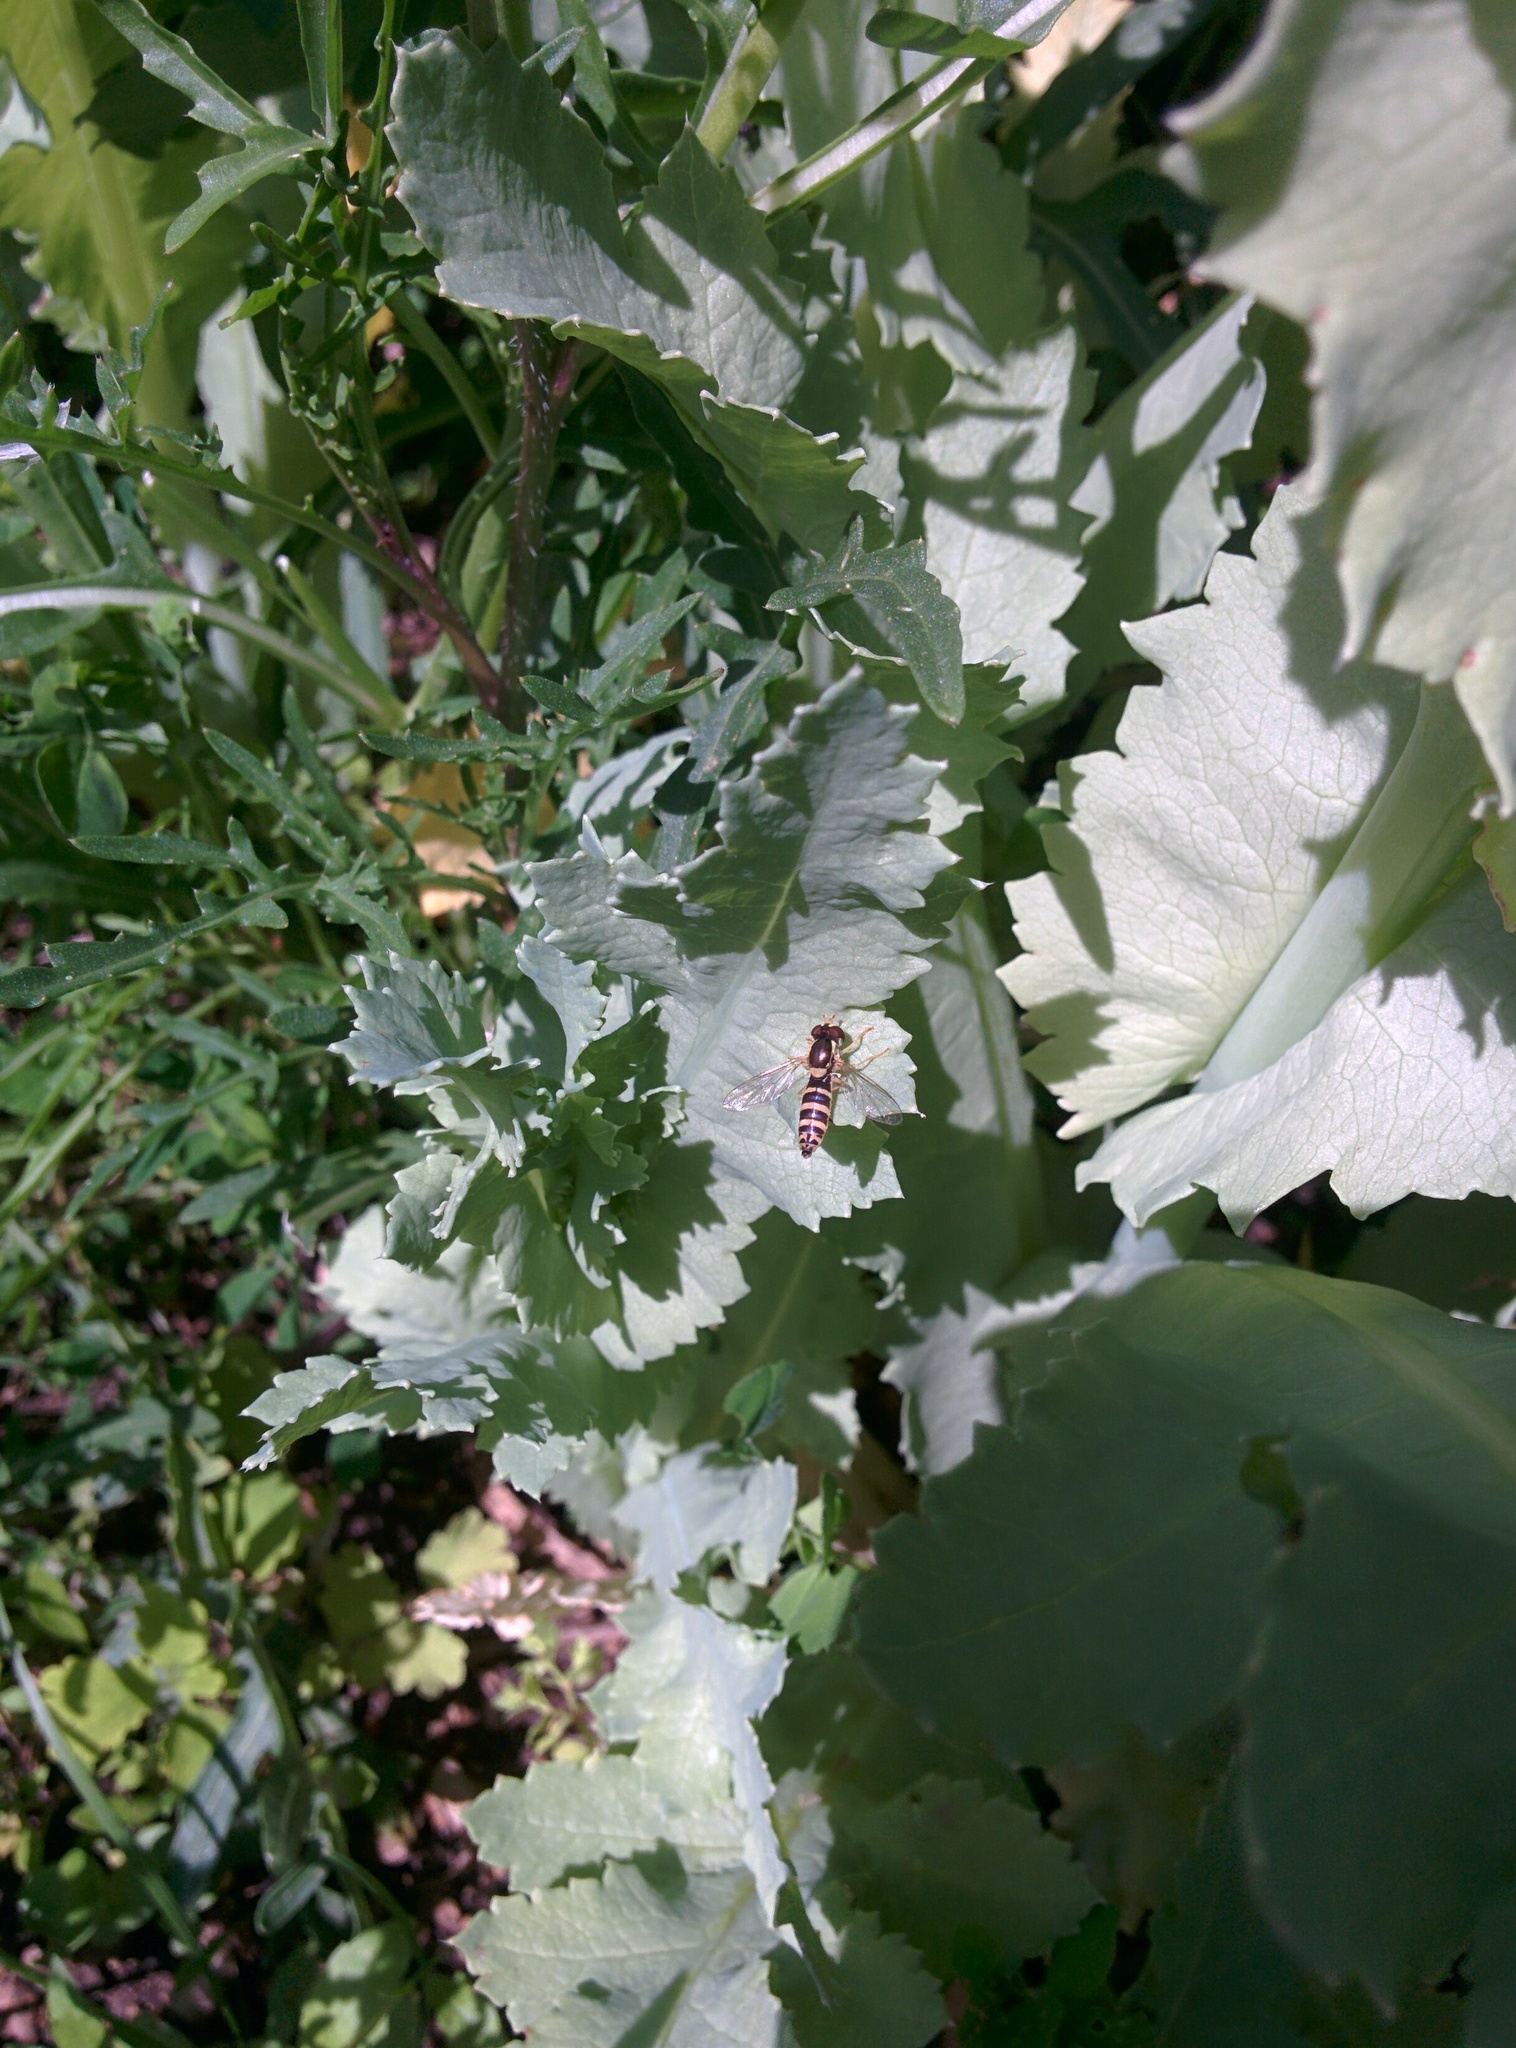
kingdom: Animalia
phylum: Arthropoda
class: Insecta
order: Diptera
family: Syrphidae
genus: Sphaerophoria
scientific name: Sphaerophoria
